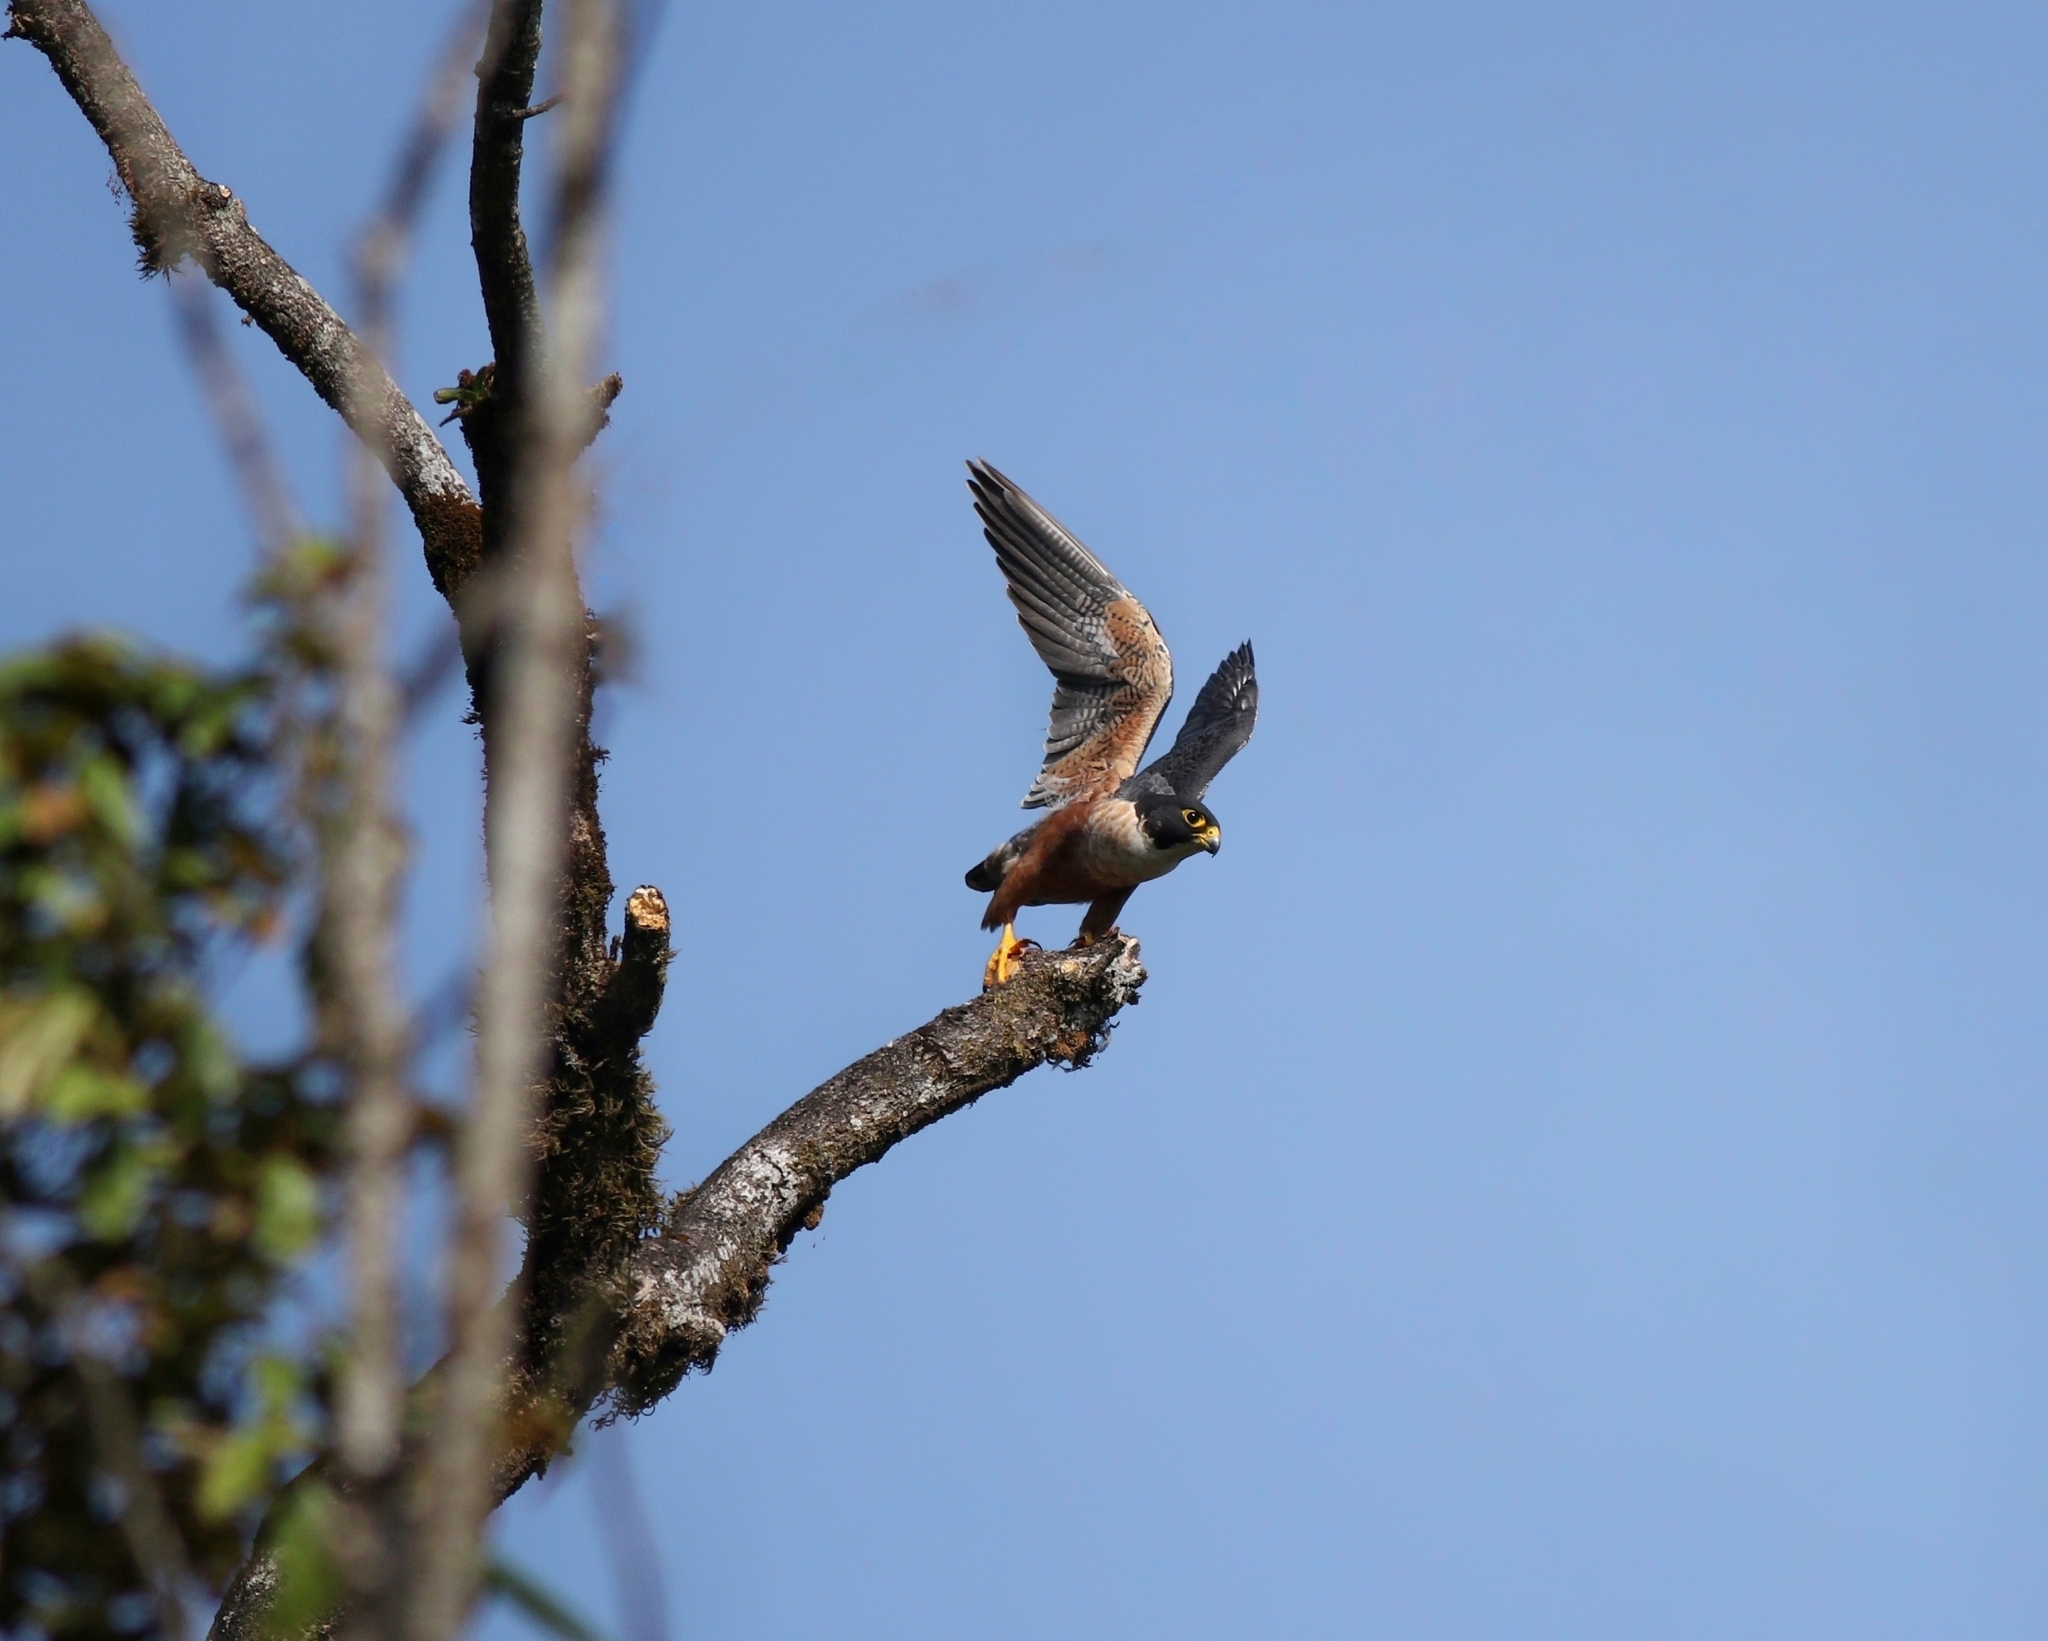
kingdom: Animalia
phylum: Chordata
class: Aves
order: Falconiformes
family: Falconidae
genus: Falco
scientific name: Falco peregrinus
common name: Peregrine falcon
